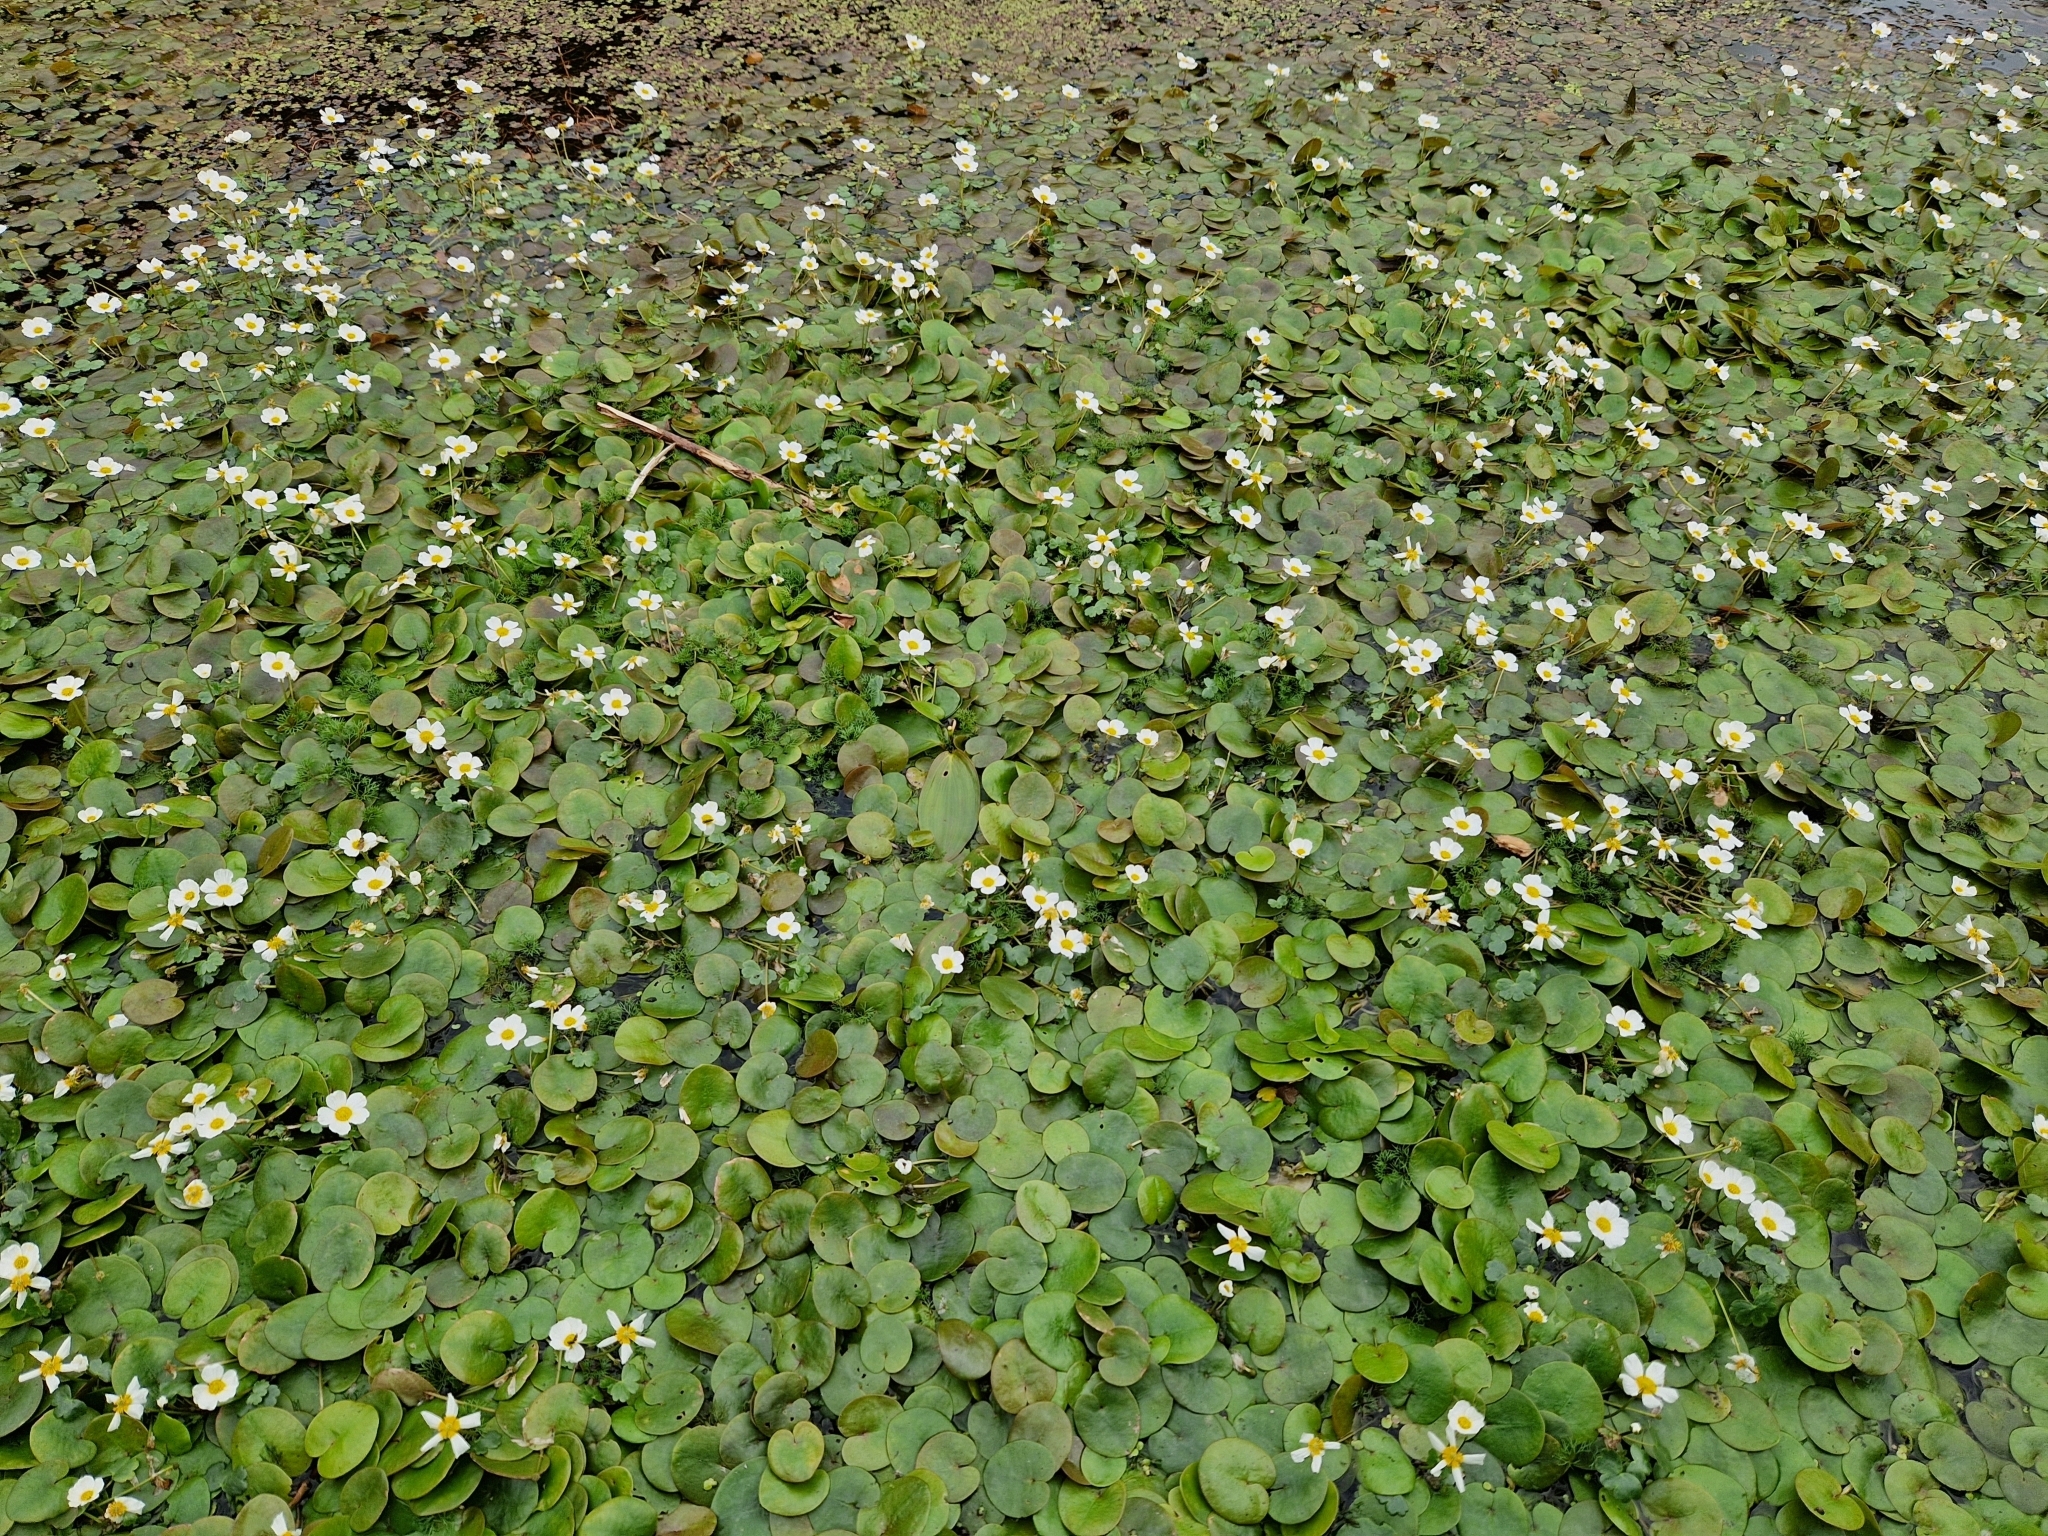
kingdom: Plantae
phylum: Tracheophyta
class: Liliopsida
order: Alismatales
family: Hydrocharitaceae
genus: Hydrocharis
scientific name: Hydrocharis morsus-ranae
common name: Frogbit
